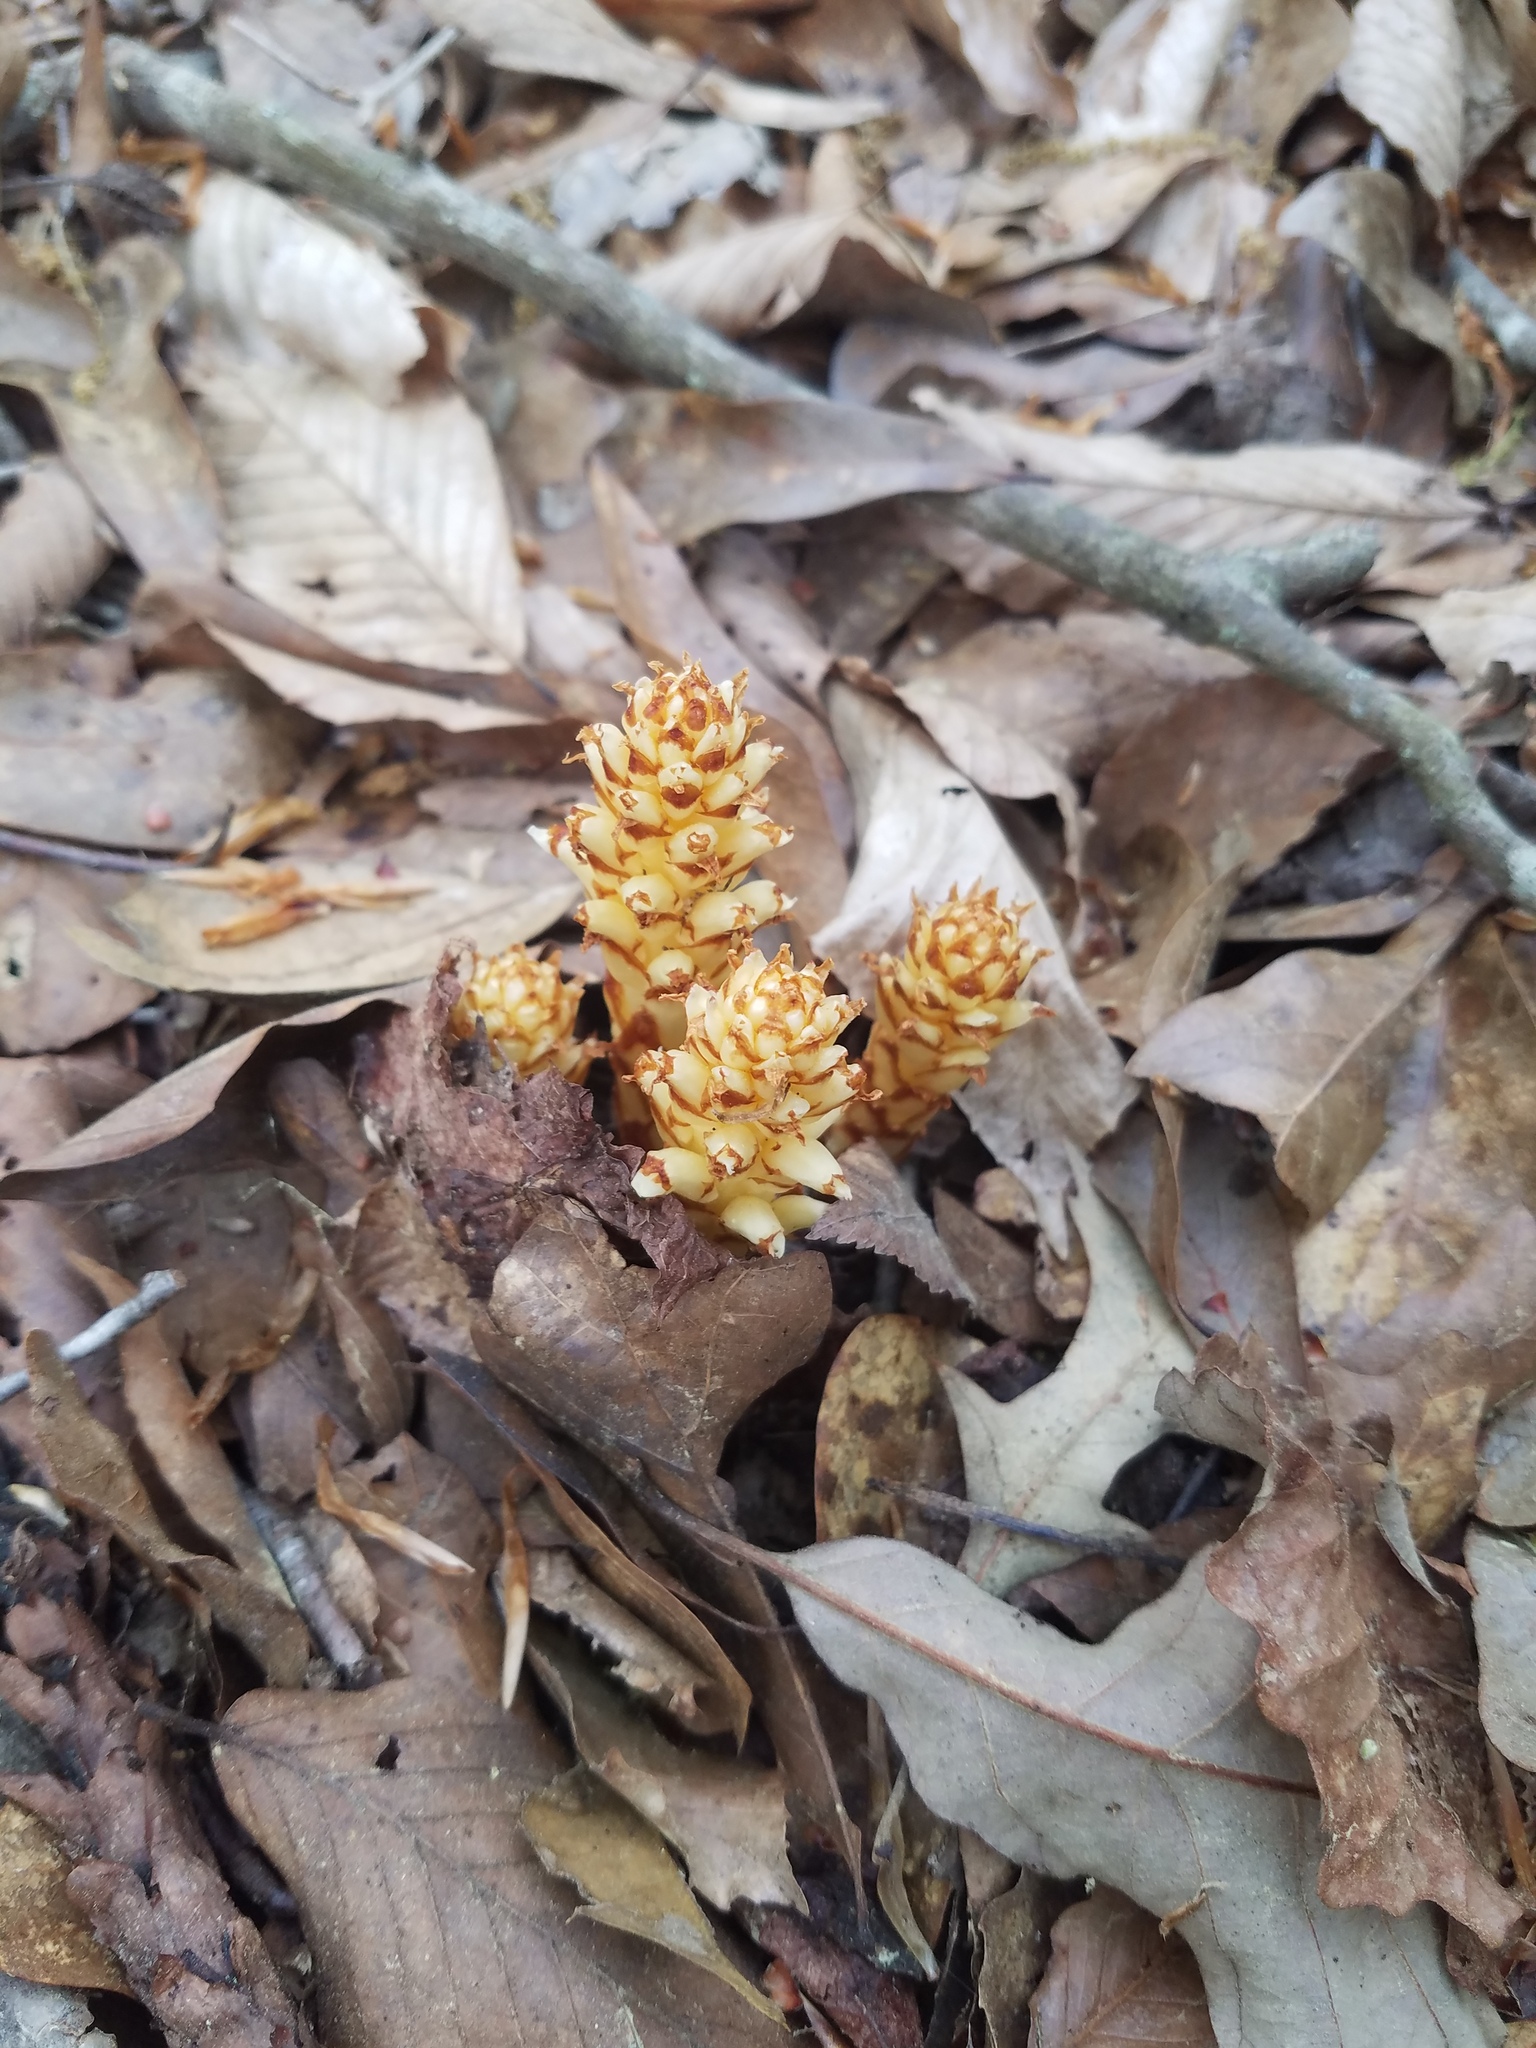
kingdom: Plantae
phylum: Tracheophyta
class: Magnoliopsida
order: Lamiales
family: Orobanchaceae
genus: Conopholis
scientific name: Conopholis americana
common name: American cancer-root
